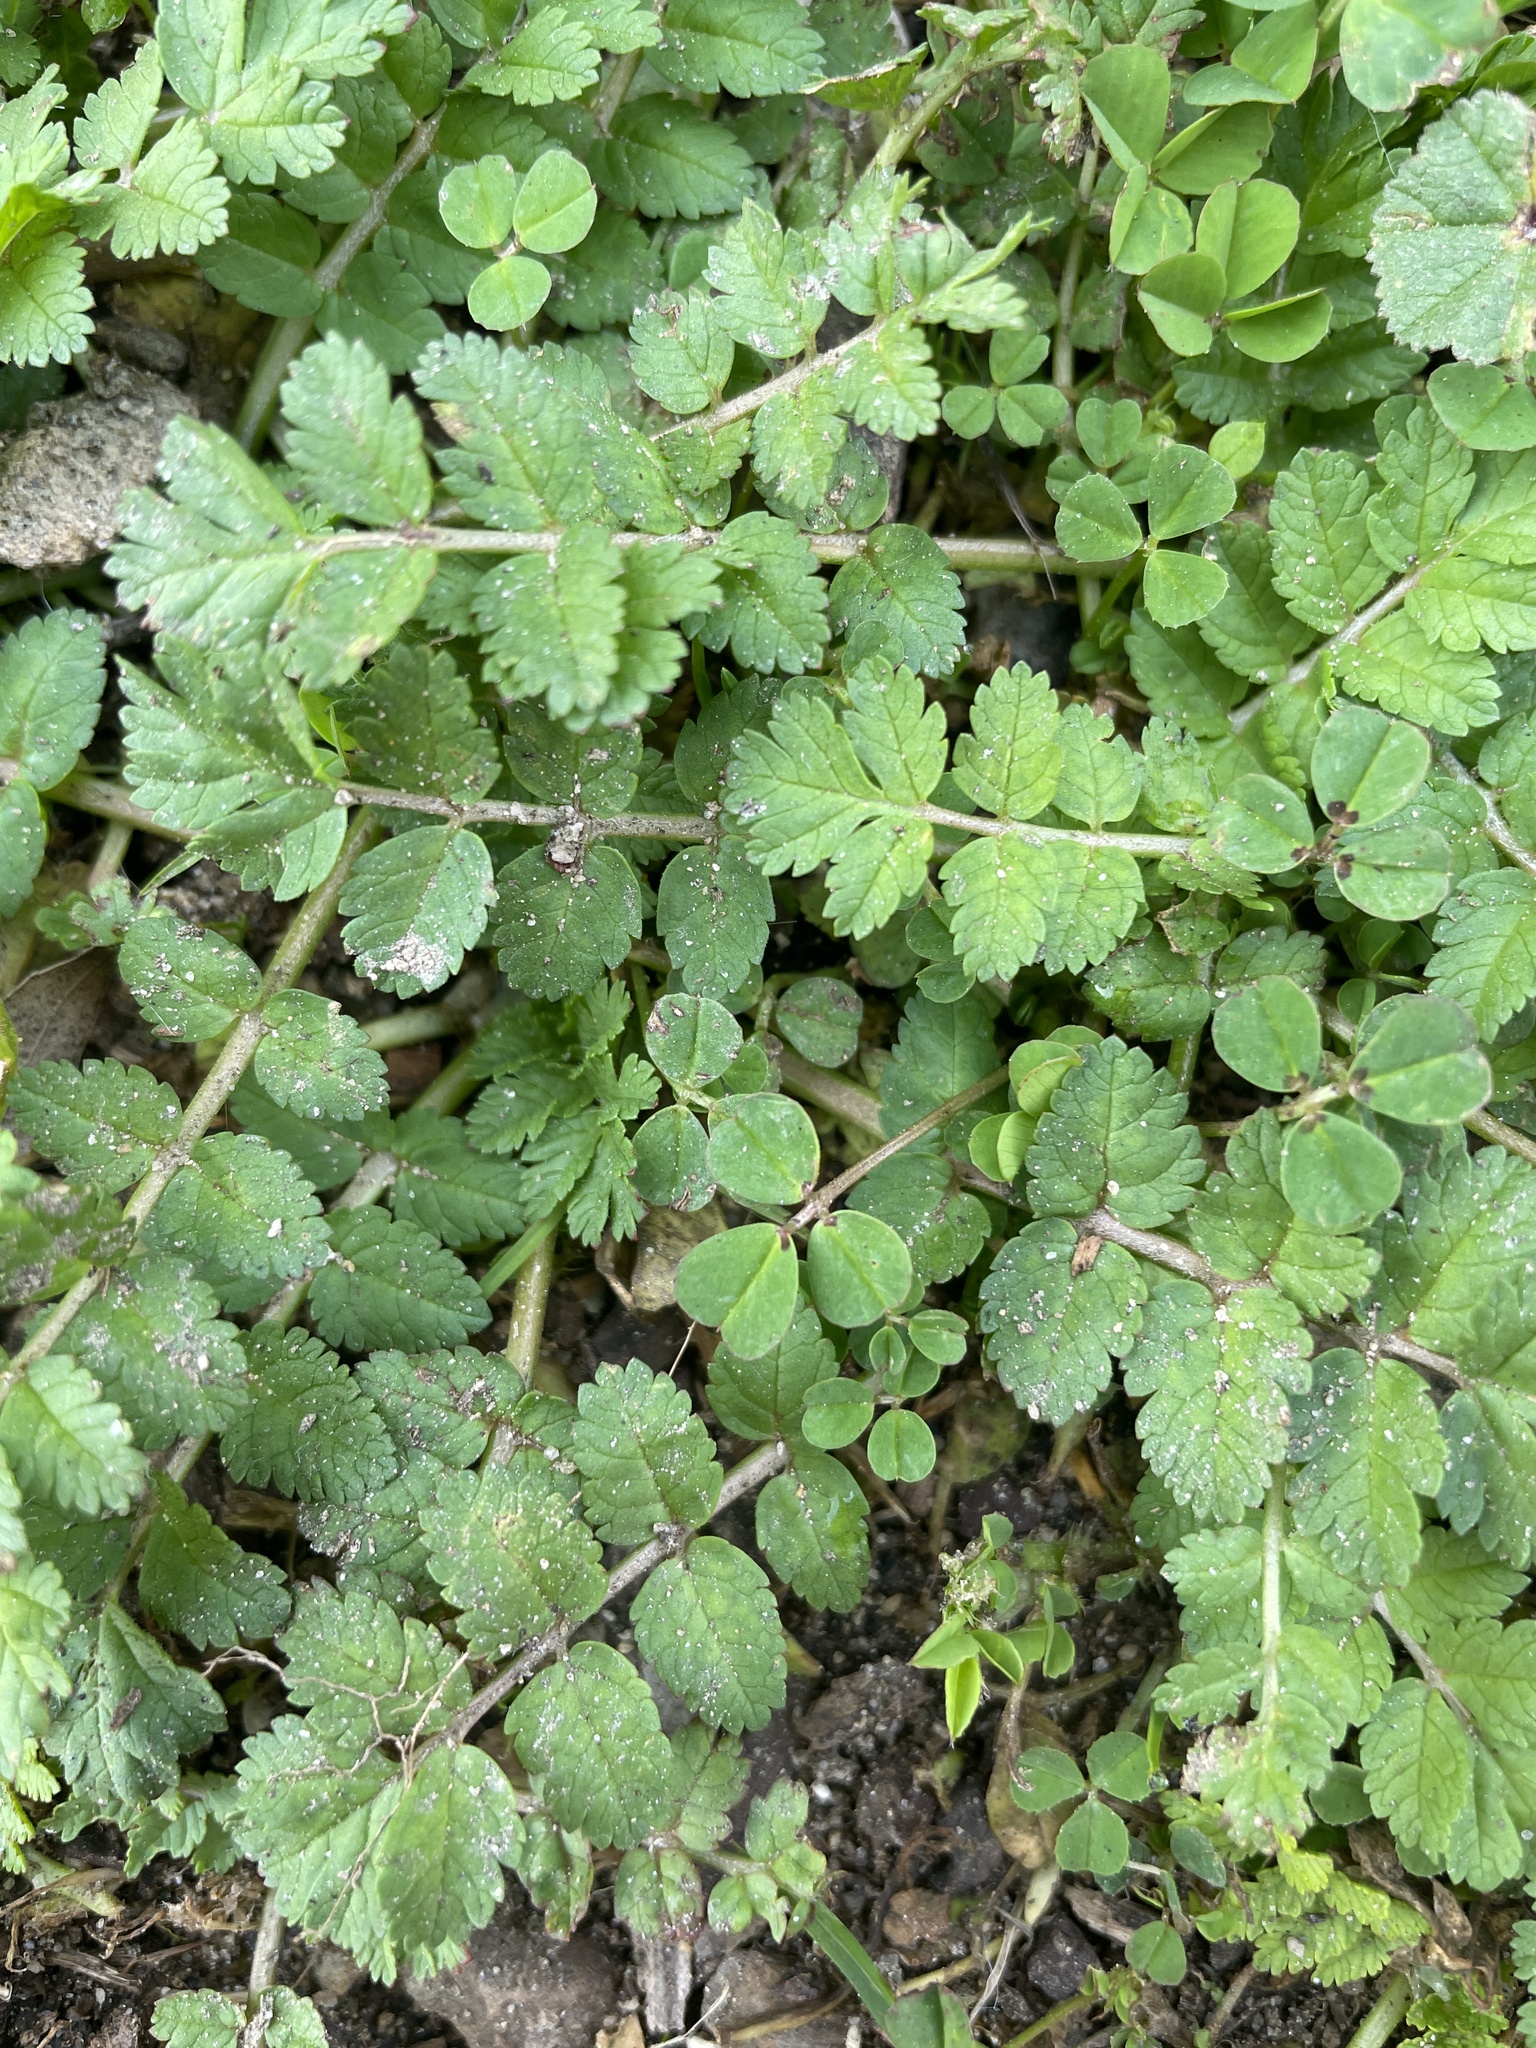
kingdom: Plantae
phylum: Tracheophyta
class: Magnoliopsida
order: Geraniales
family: Geraniaceae
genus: Erodium
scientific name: Erodium moschatum
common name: Musk stork's-bill
